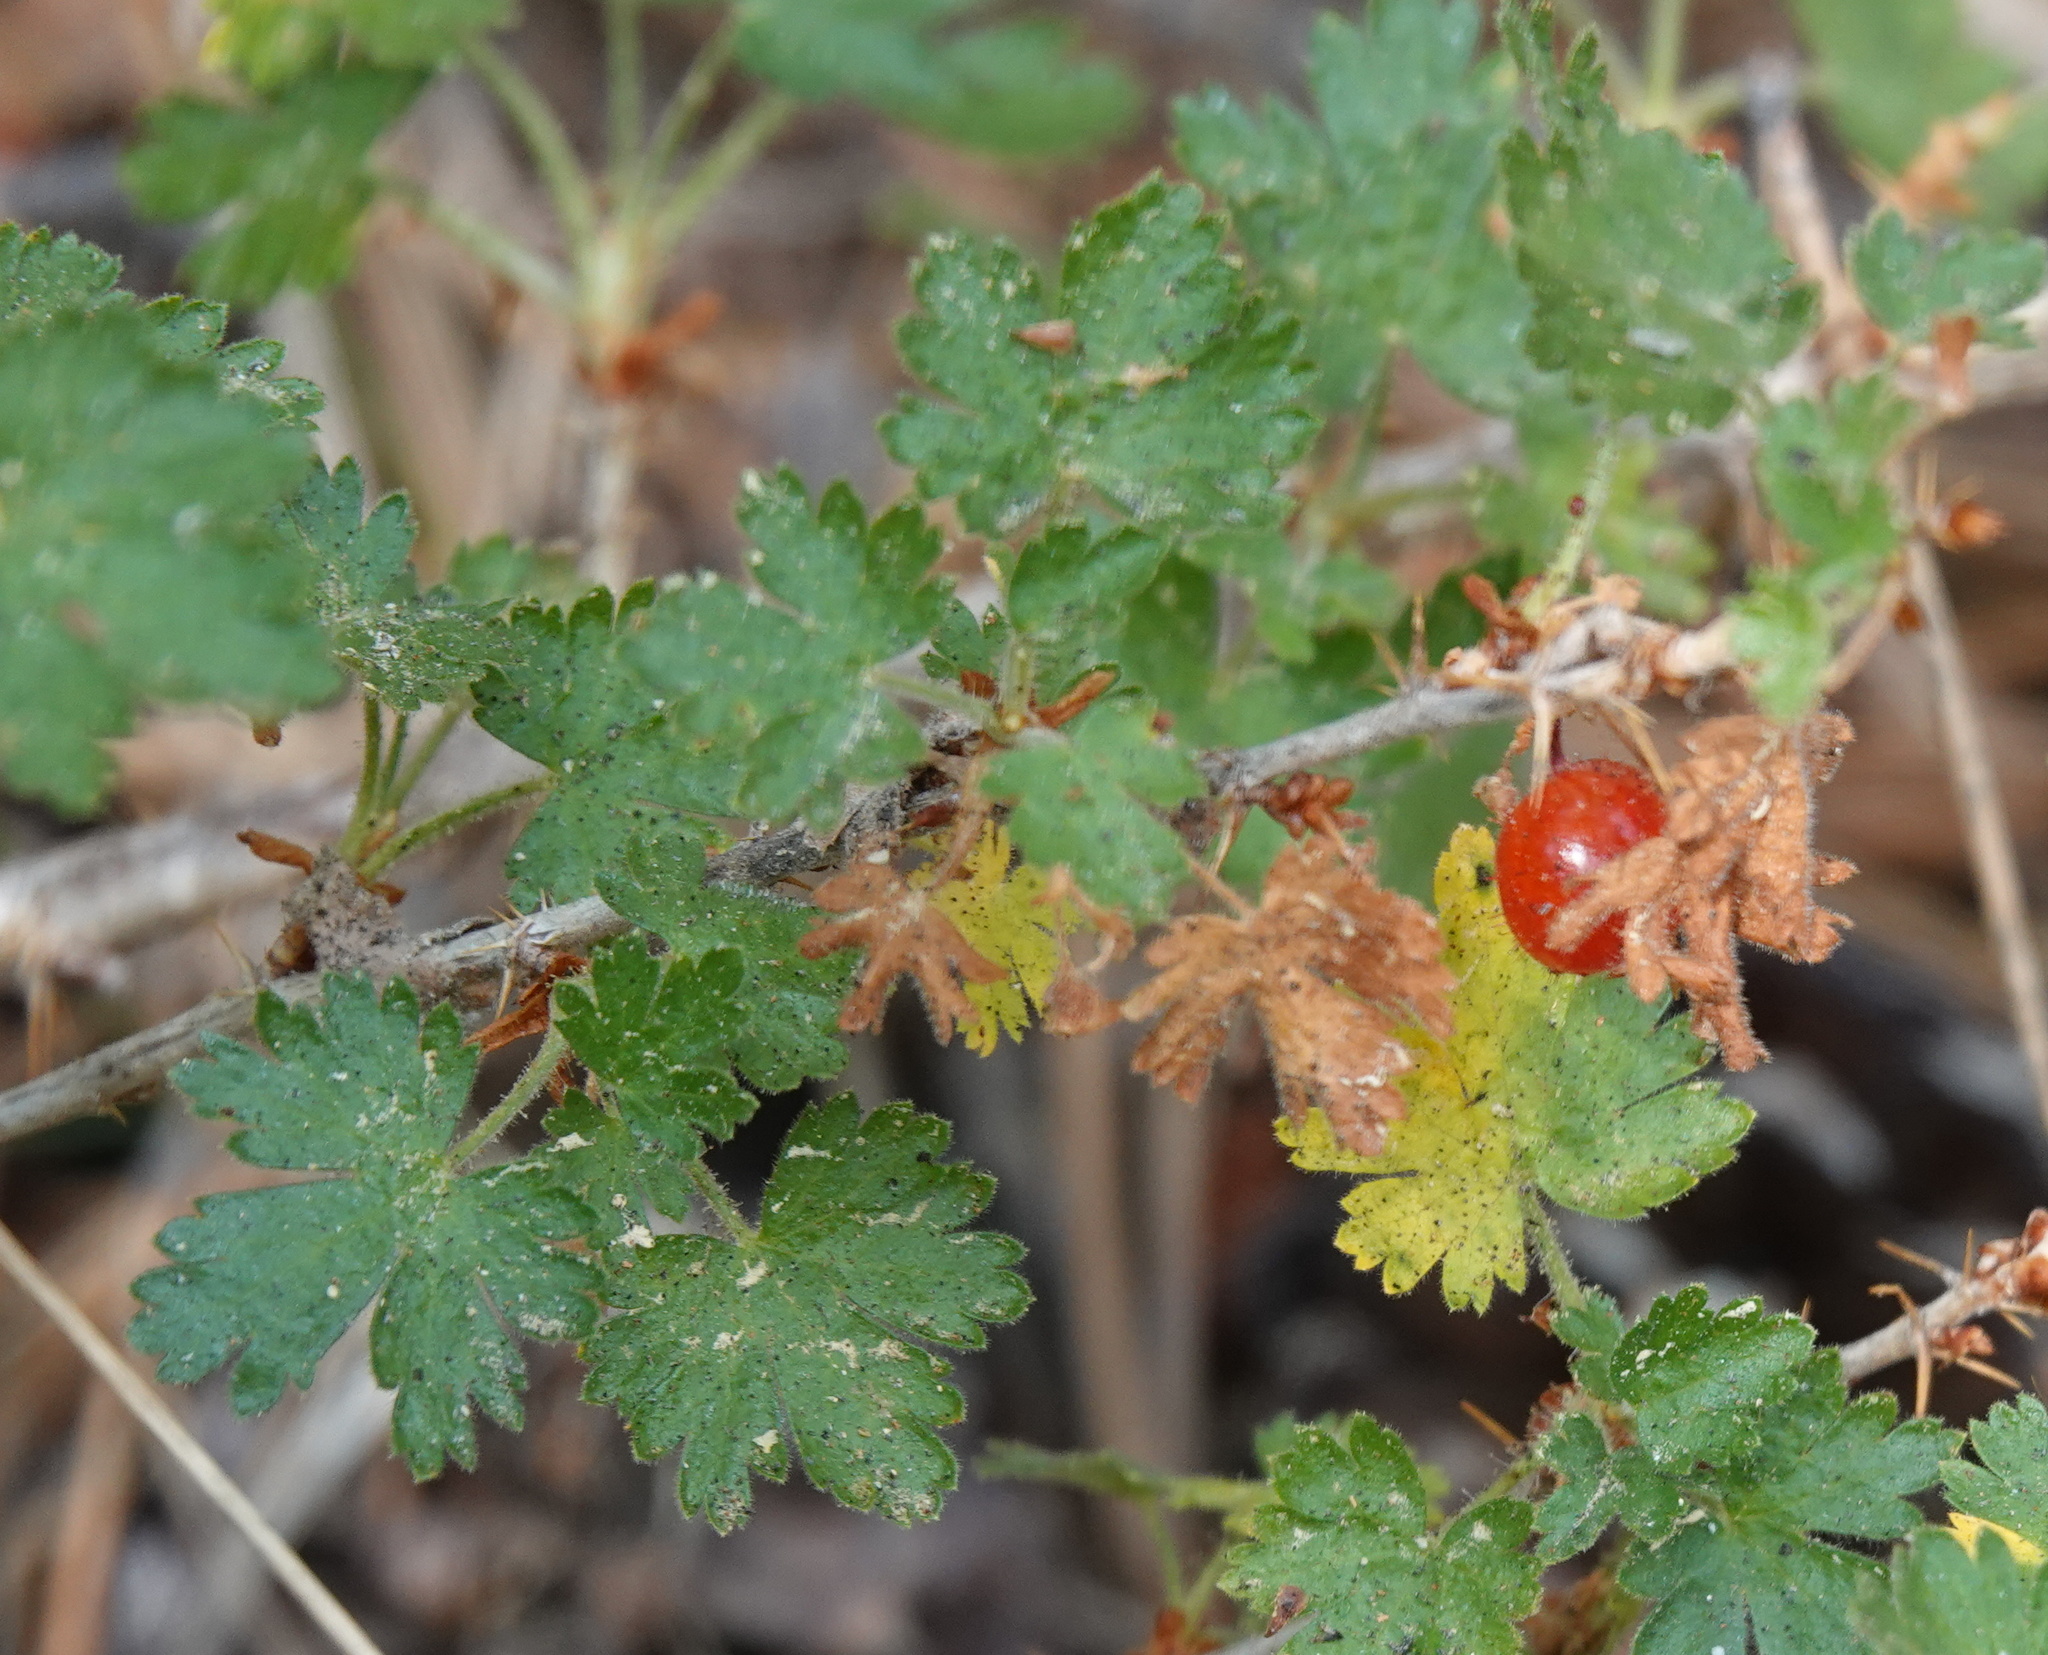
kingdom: Plantae
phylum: Tracheophyta
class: Magnoliopsida
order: Saxifragales
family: Grossulariaceae
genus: Ribes
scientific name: Ribes montigenum
